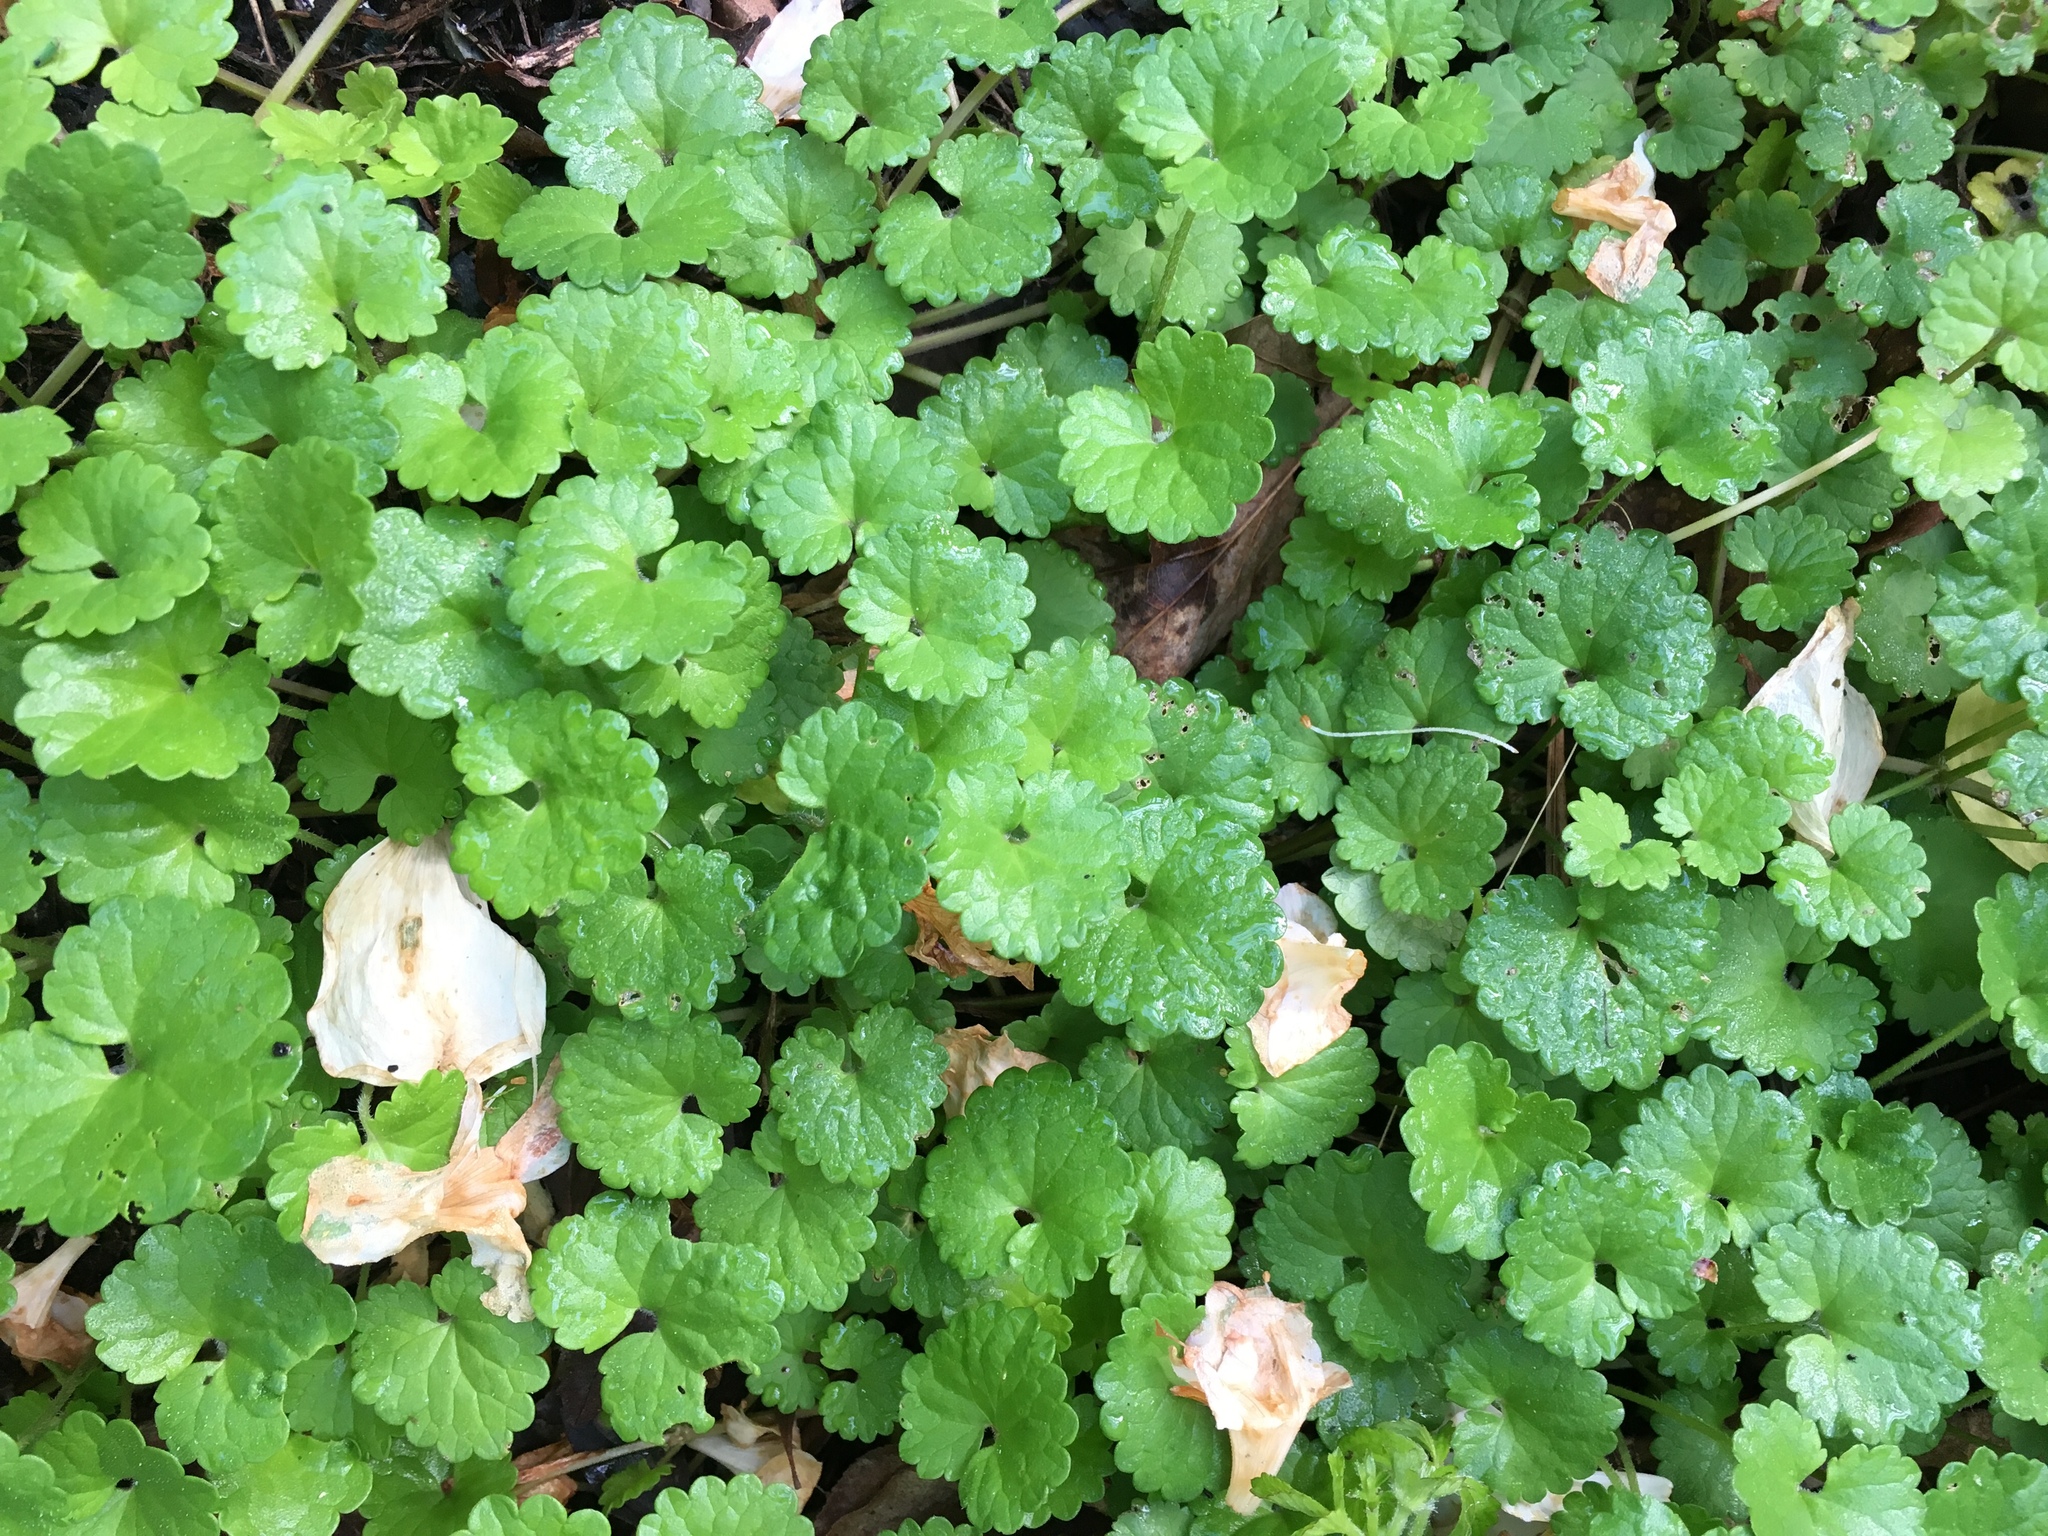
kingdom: Plantae
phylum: Tracheophyta
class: Magnoliopsida
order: Lamiales
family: Lamiaceae
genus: Glechoma
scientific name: Glechoma hederacea
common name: Ground ivy
